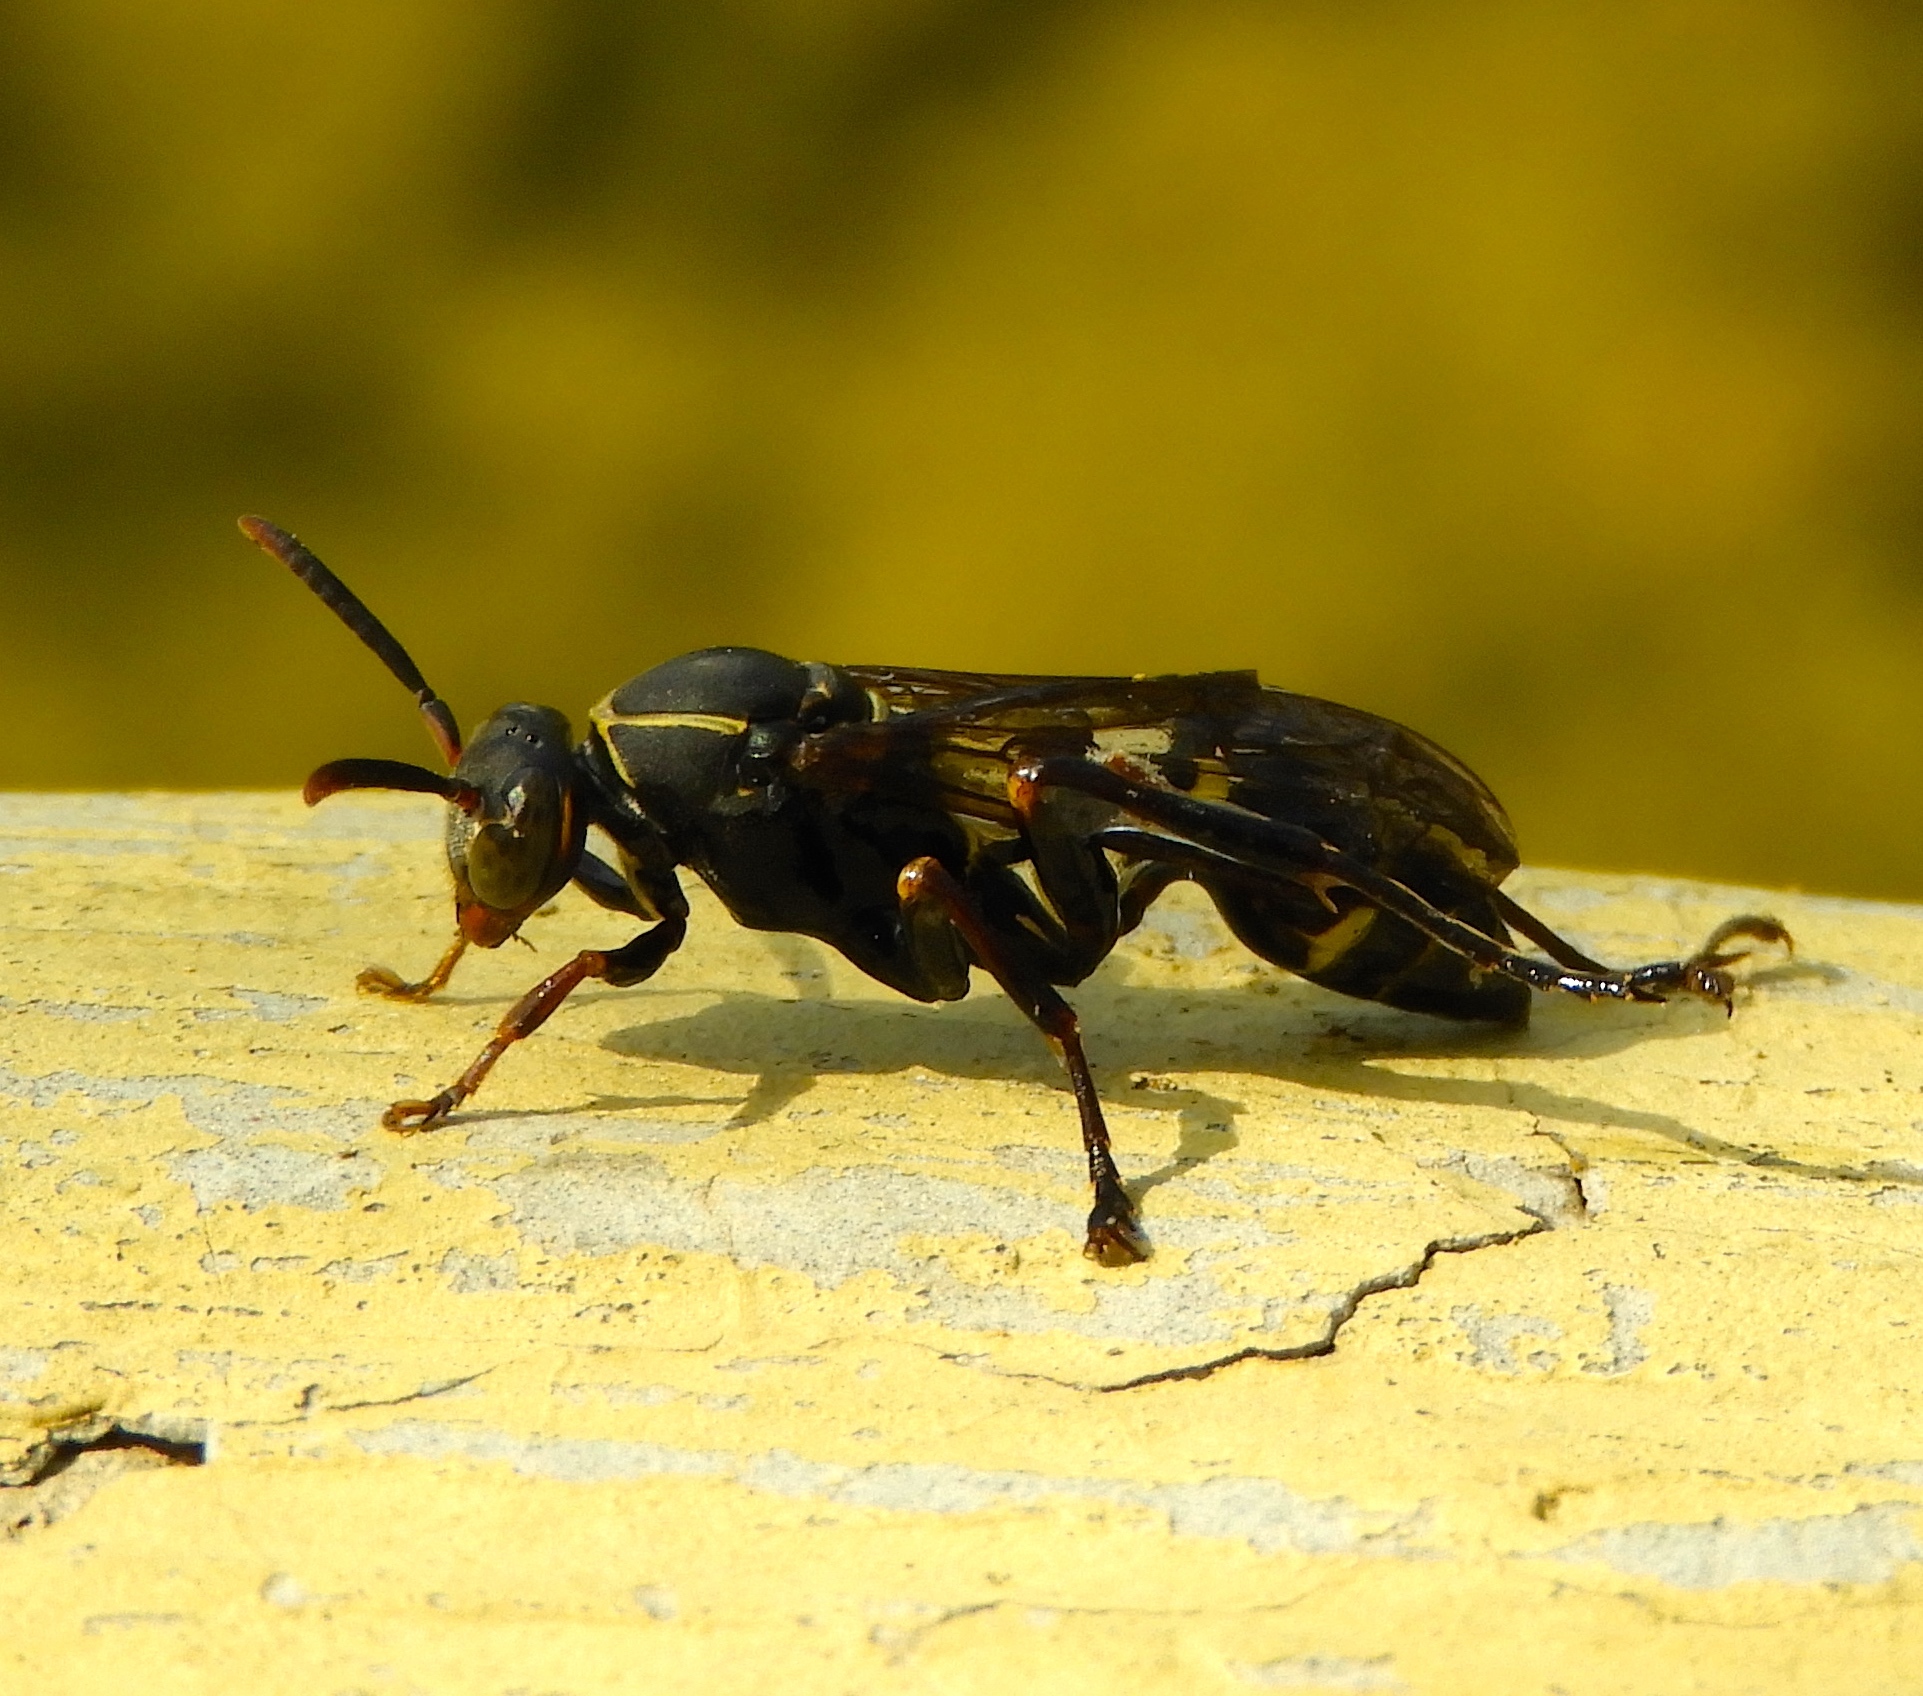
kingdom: Animalia
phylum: Arthropoda
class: Insecta
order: Hymenoptera
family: Vespidae
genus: Mischocyttarus
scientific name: Mischocyttarus rufidens
